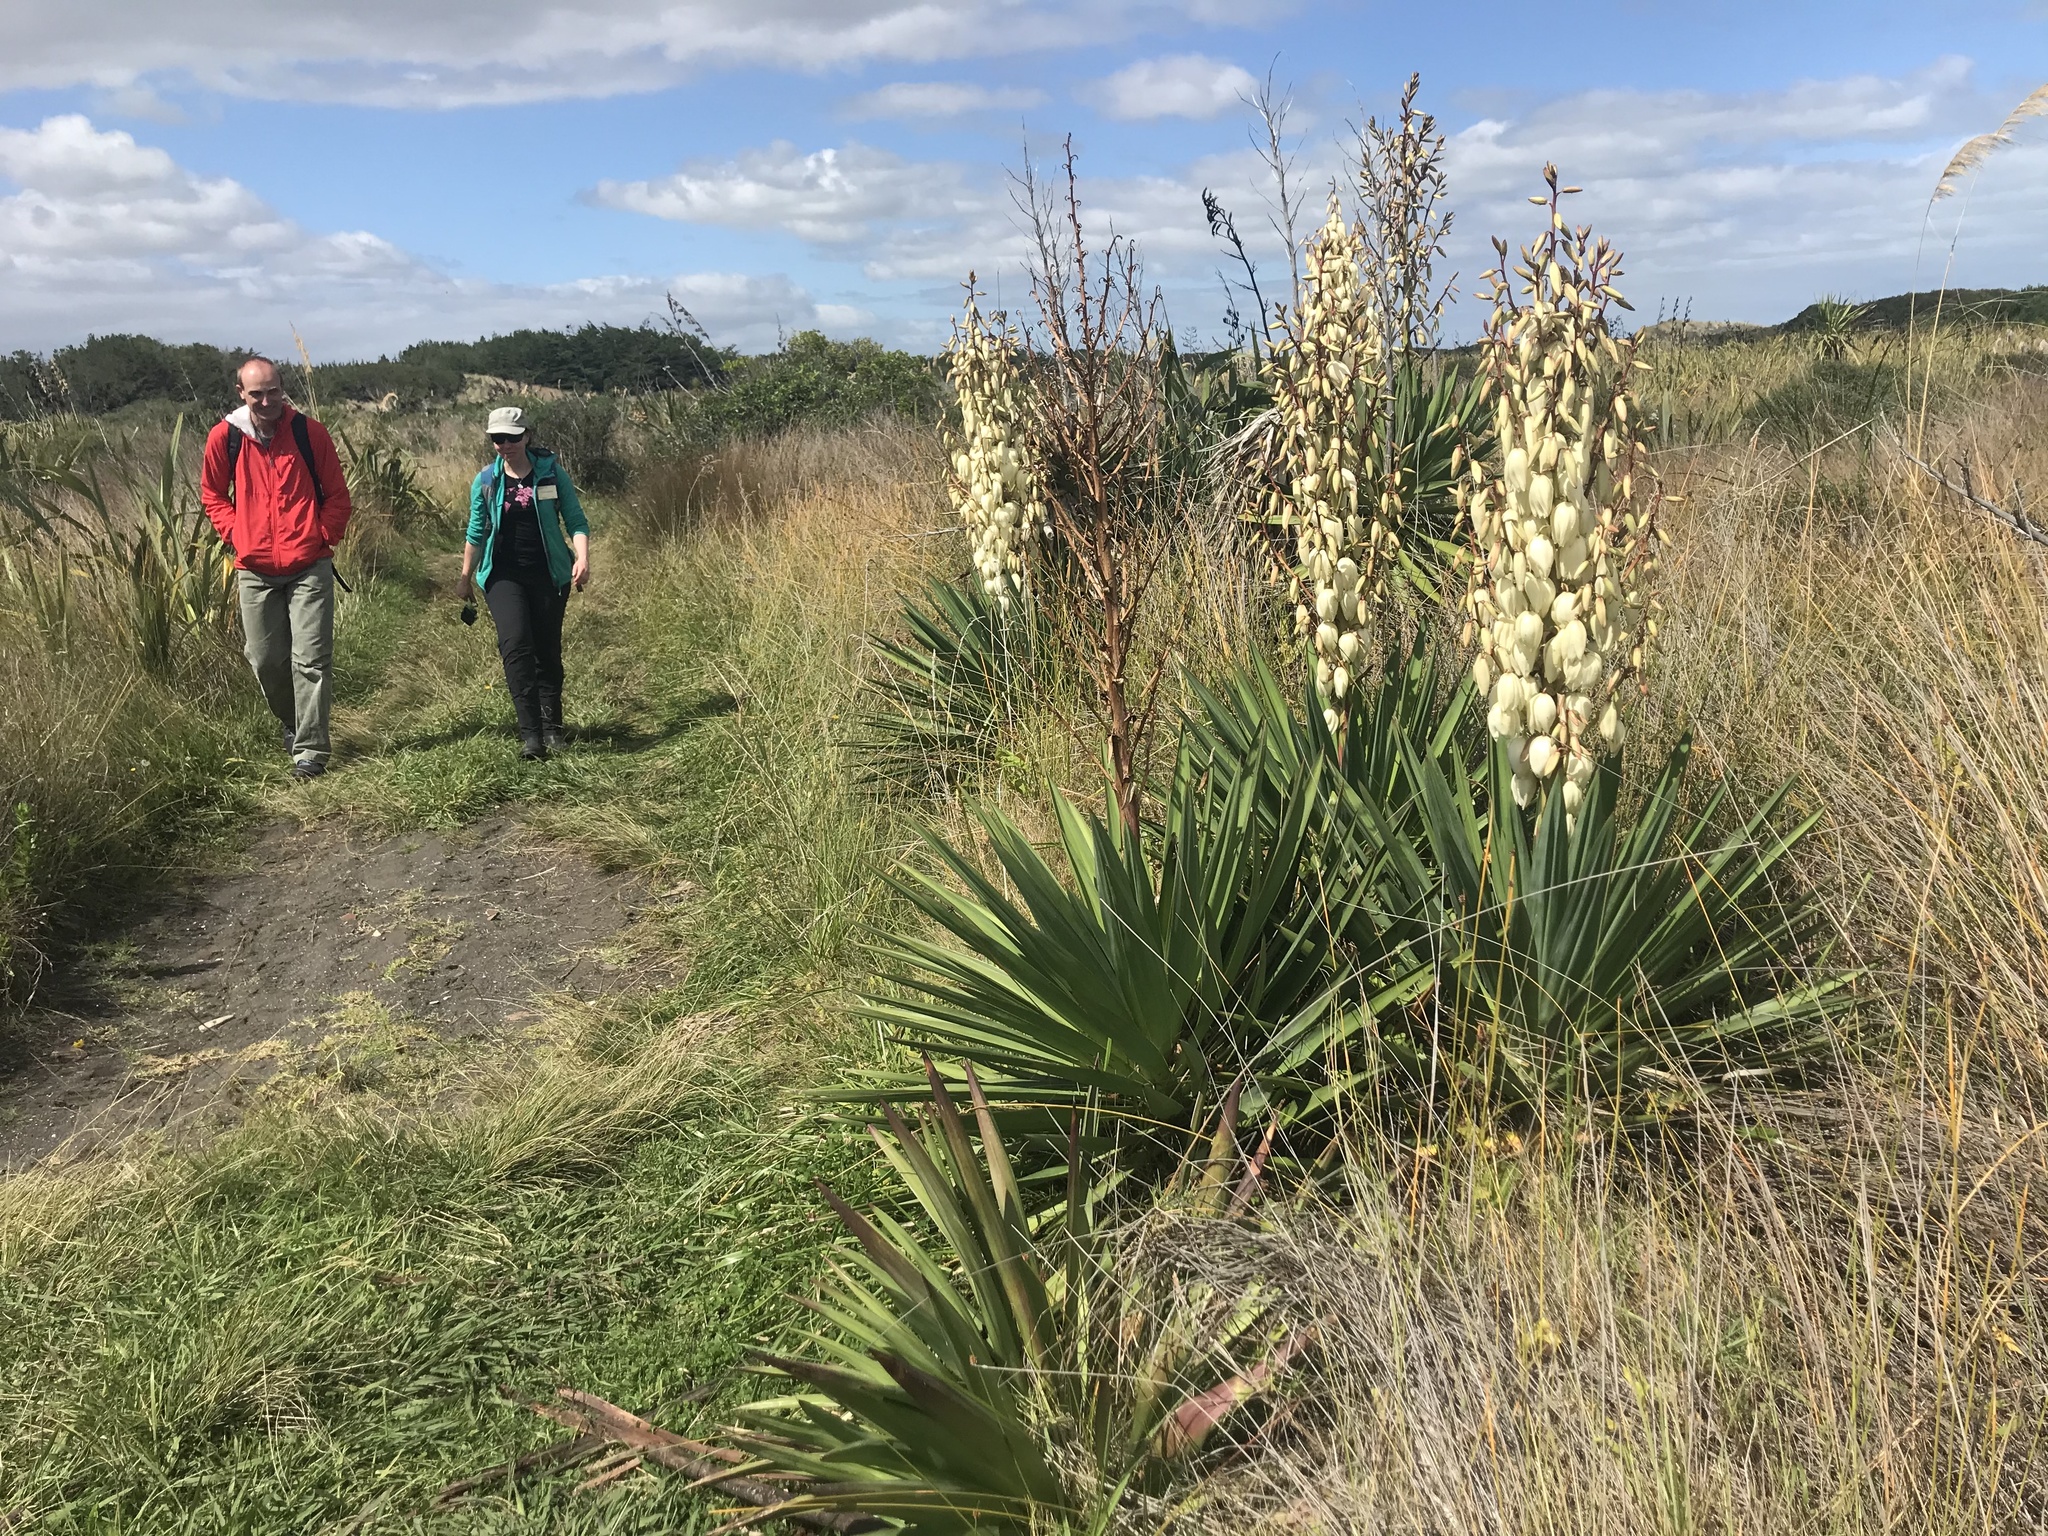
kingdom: Plantae
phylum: Tracheophyta
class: Liliopsida
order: Asparagales
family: Asparagaceae
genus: Yucca
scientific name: Yucca gloriosa
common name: Spanish-dagger
